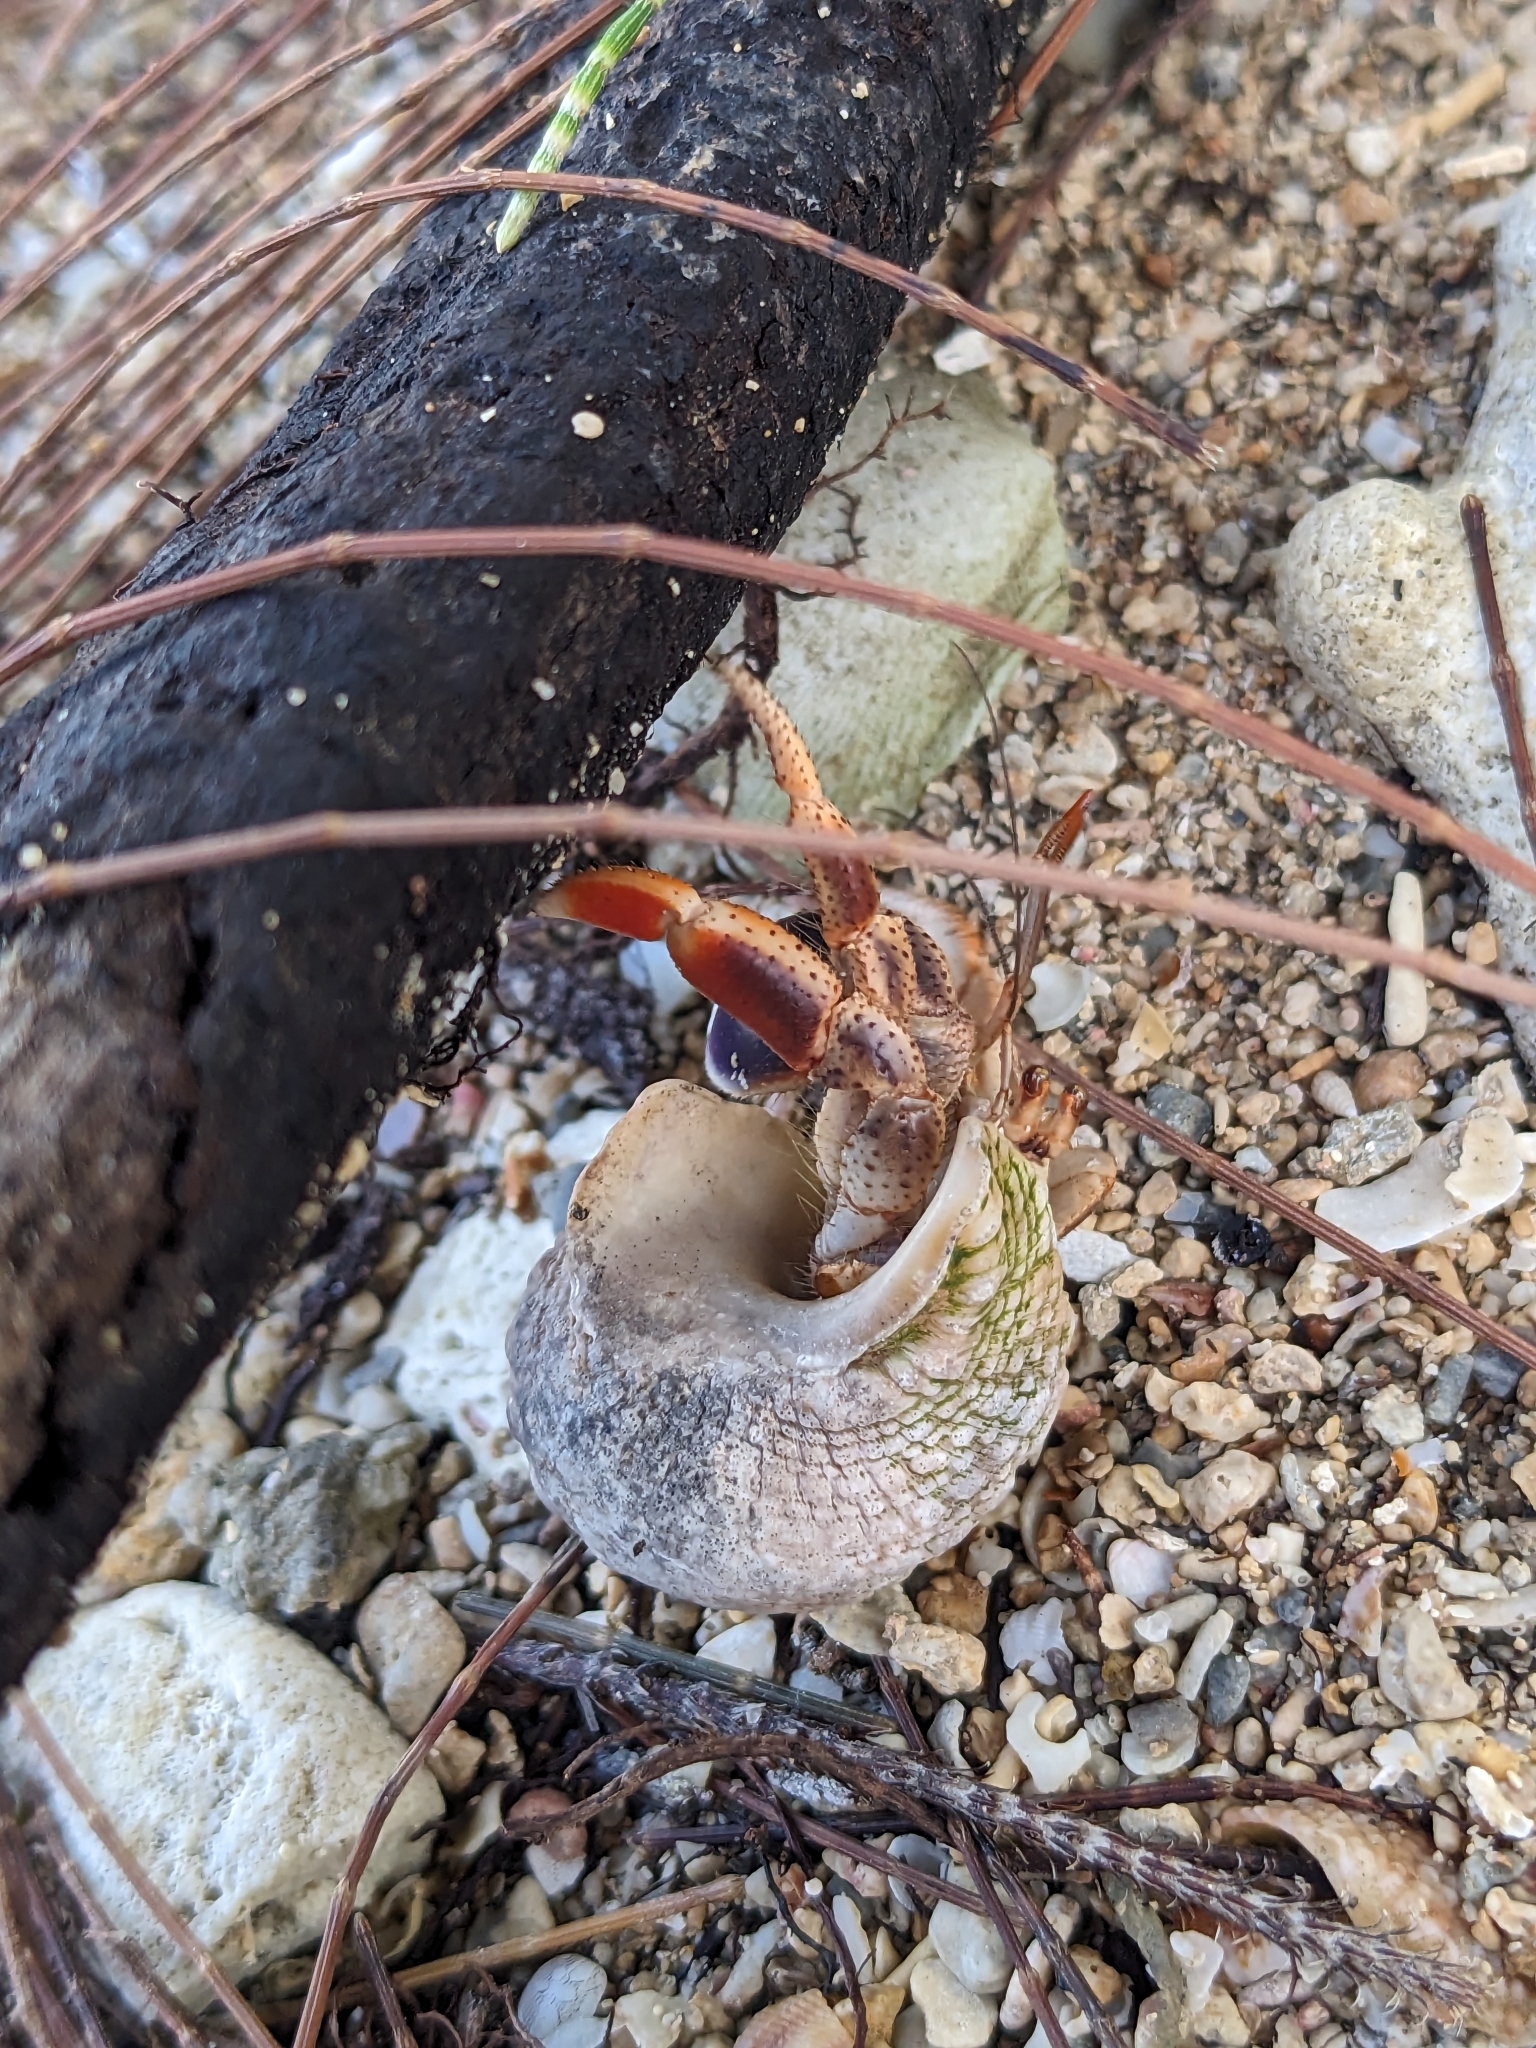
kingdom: Animalia
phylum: Arthropoda
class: Malacostraca
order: Decapoda
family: Coenobitidae
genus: Coenobita
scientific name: Coenobita clypeatus
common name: Caribbean hermit crab
